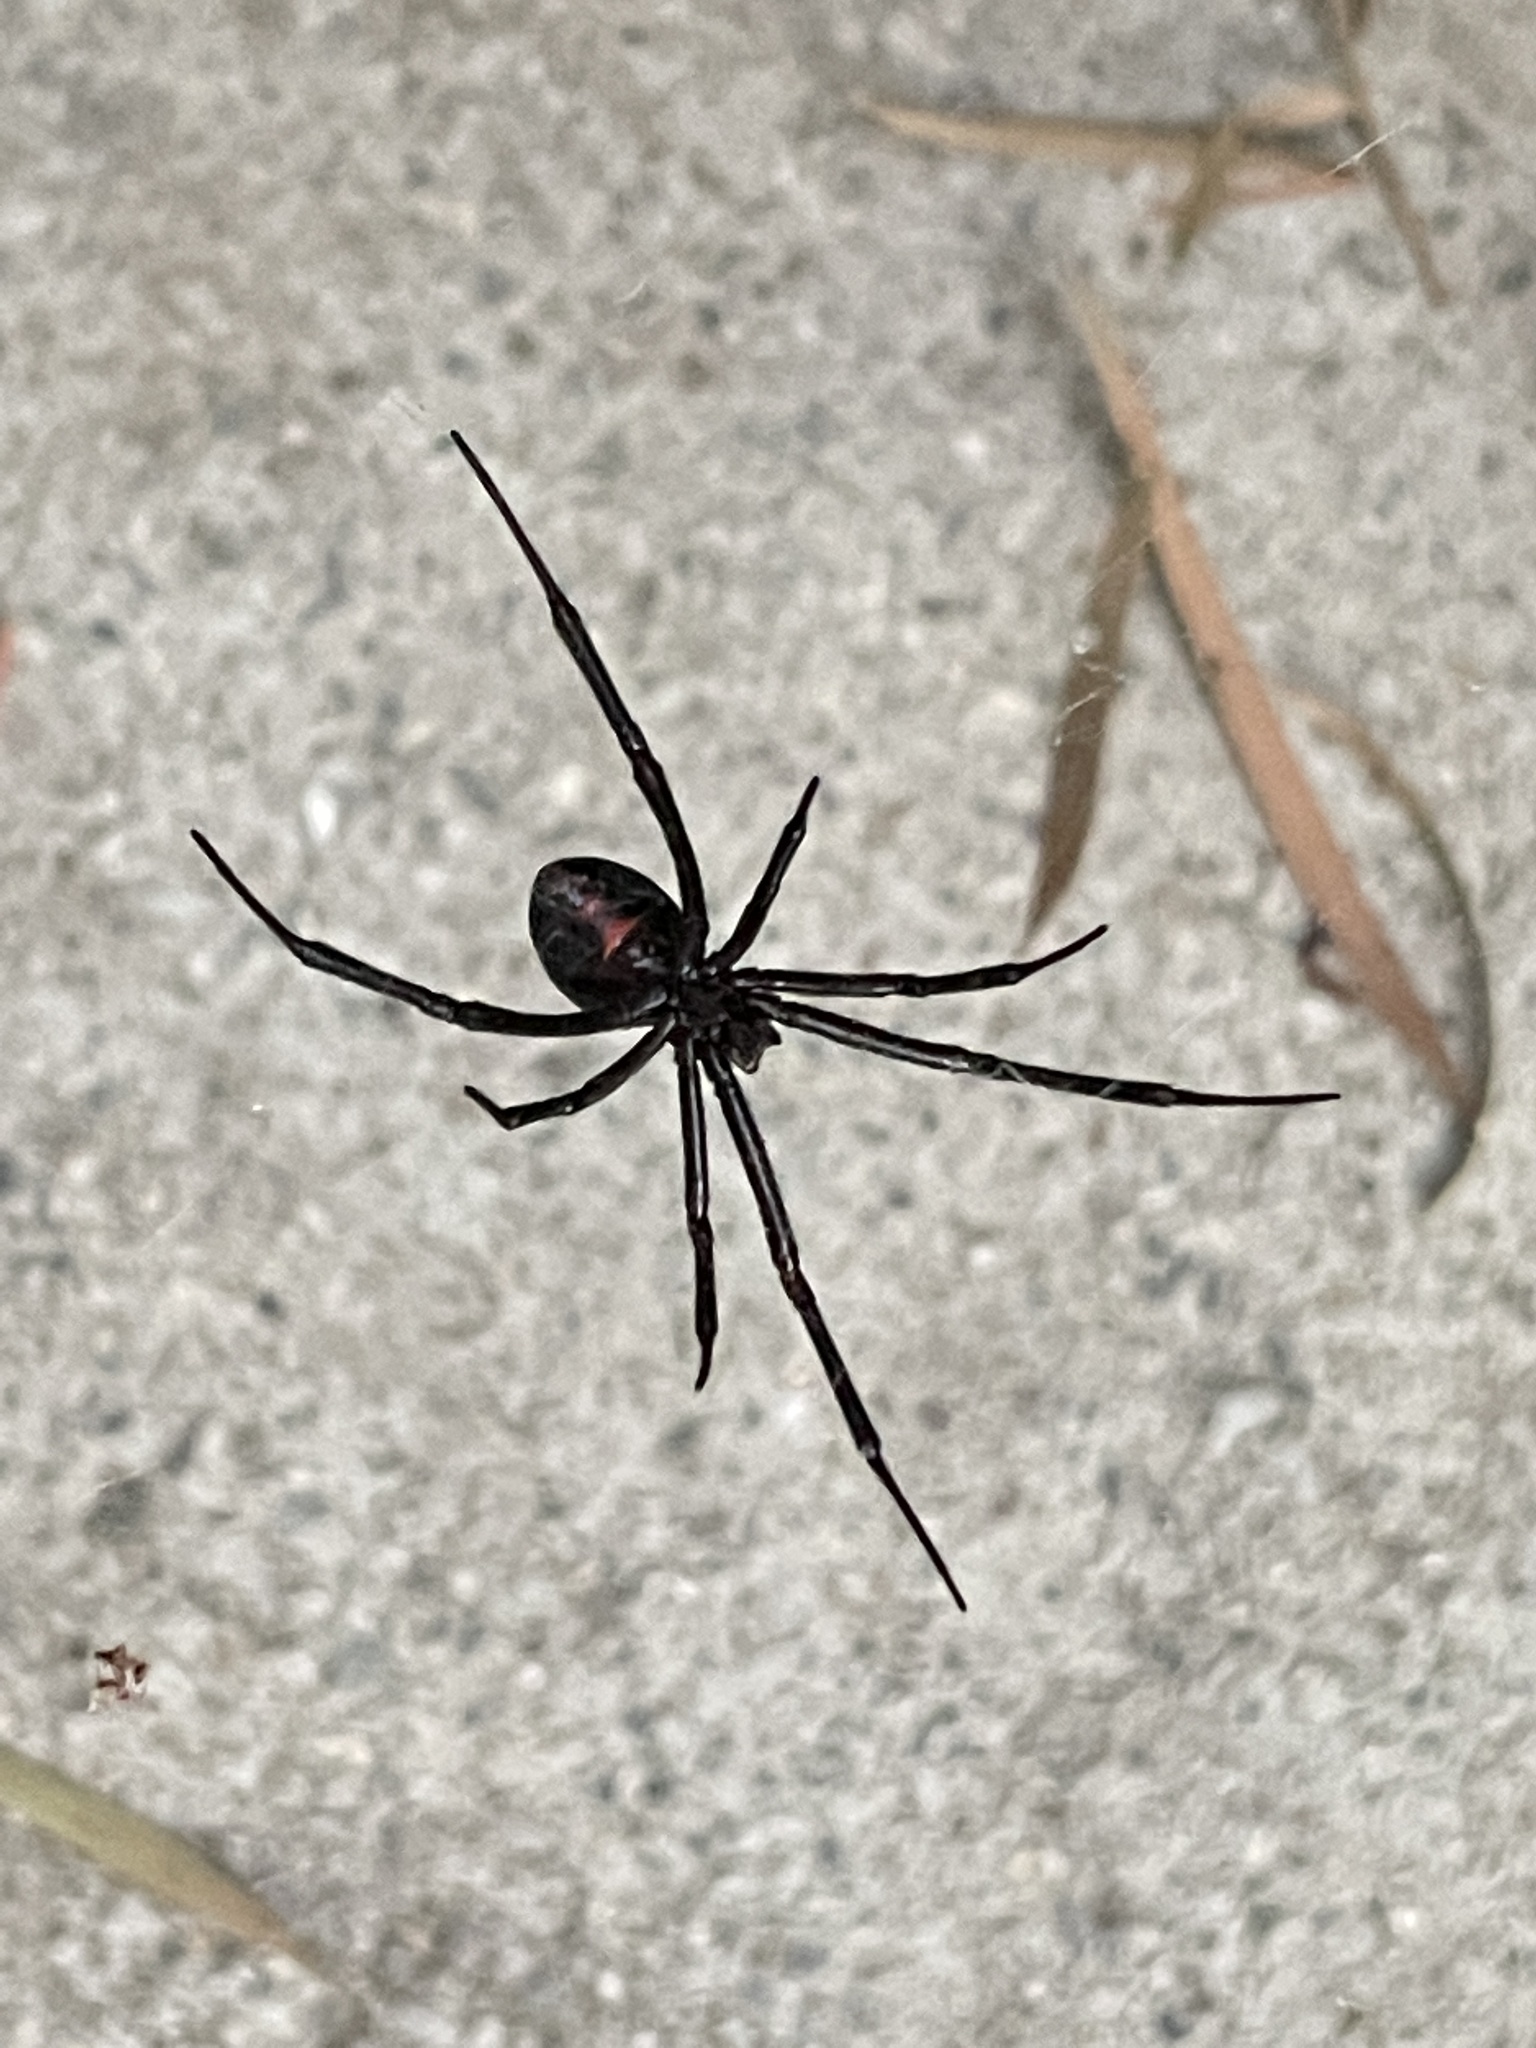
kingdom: Animalia
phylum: Arthropoda
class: Arachnida
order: Araneae
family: Theridiidae
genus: Latrodectus
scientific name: Latrodectus hesperus
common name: Western black widow
